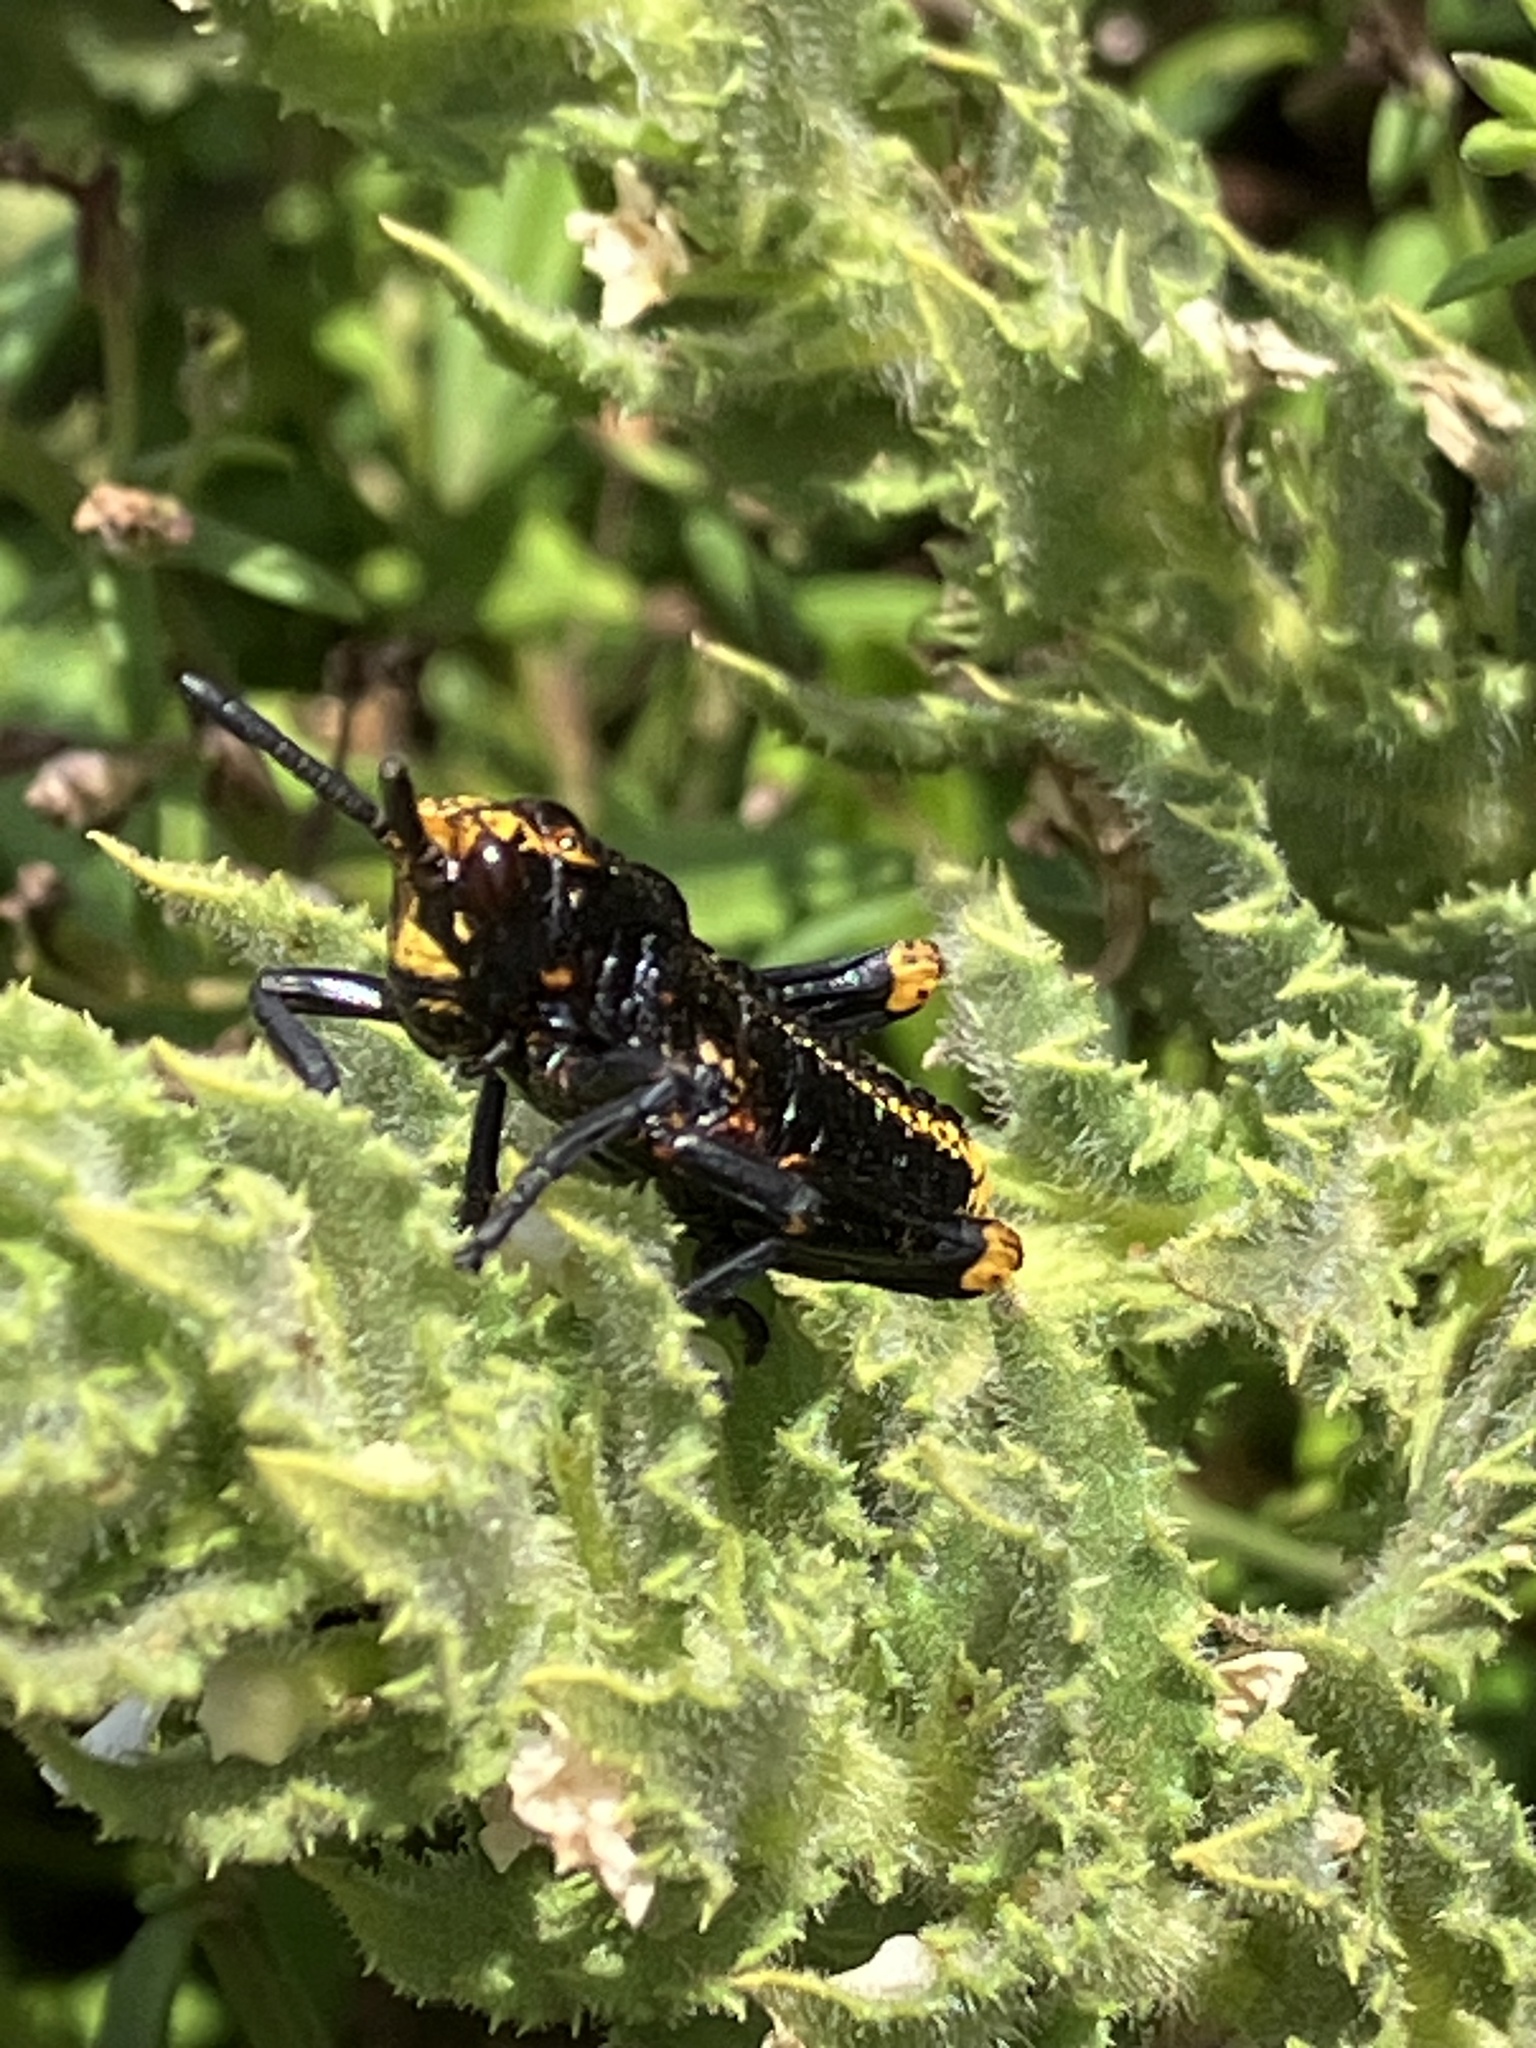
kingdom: Animalia
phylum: Arthropoda
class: Insecta
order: Orthoptera
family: Pyrgomorphidae
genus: Dictyophorus
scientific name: Dictyophorus spumans
